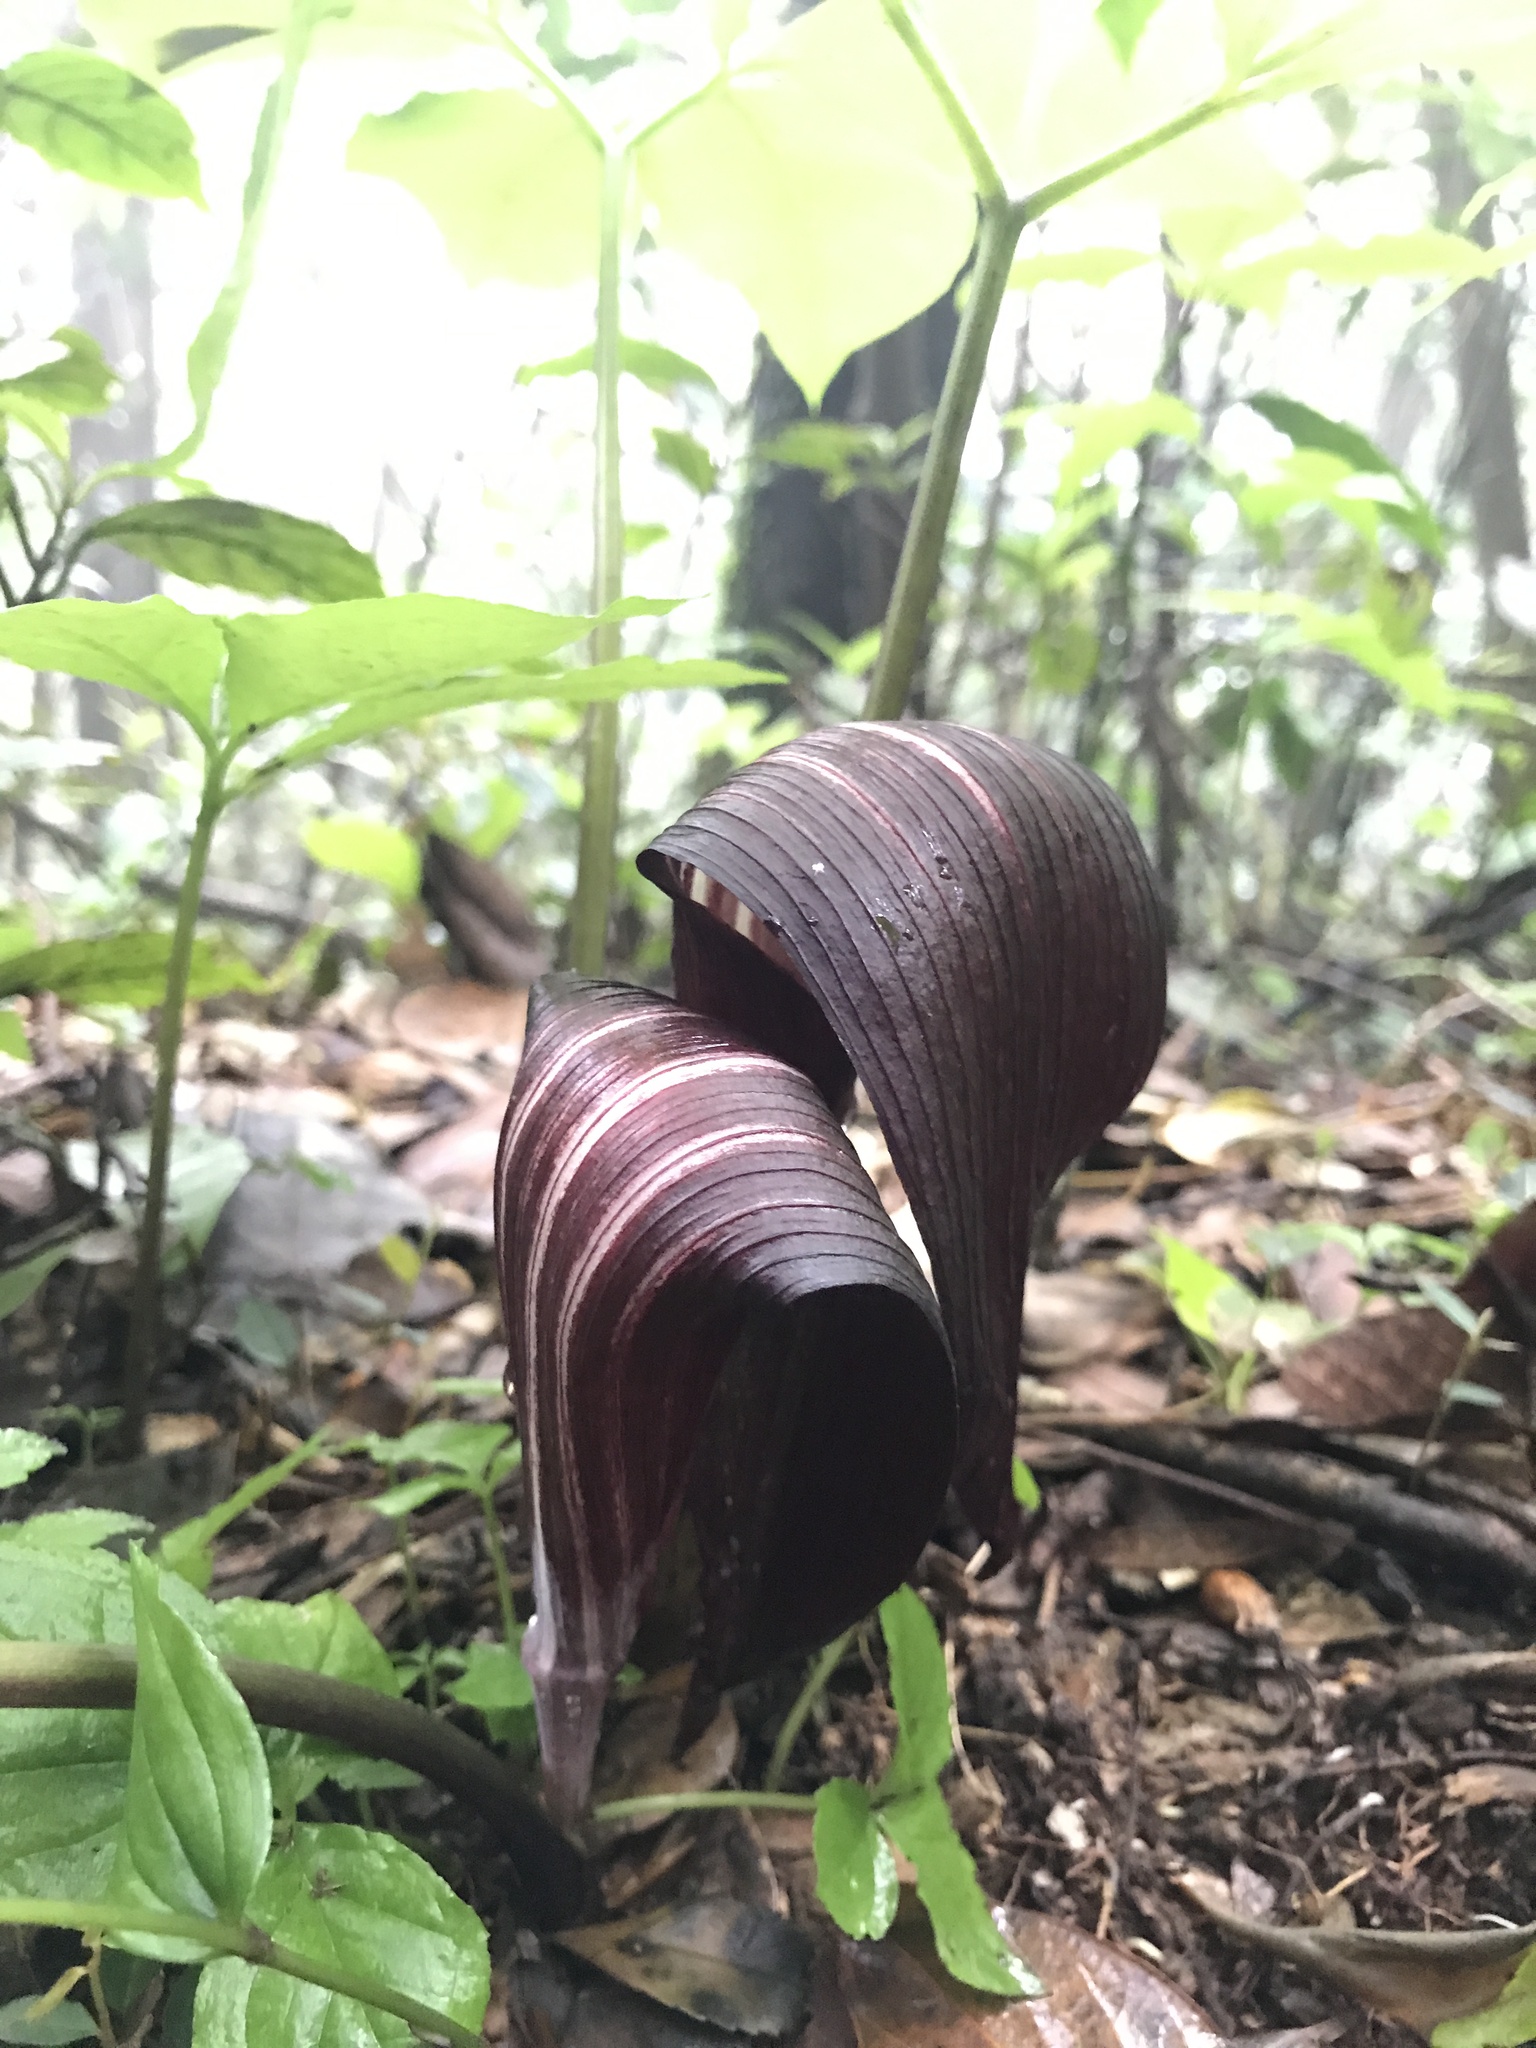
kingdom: Plantae
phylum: Tracheophyta
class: Liliopsida
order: Alismatales
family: Araceae
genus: Arisaema
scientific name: Arisaema sazensoo
